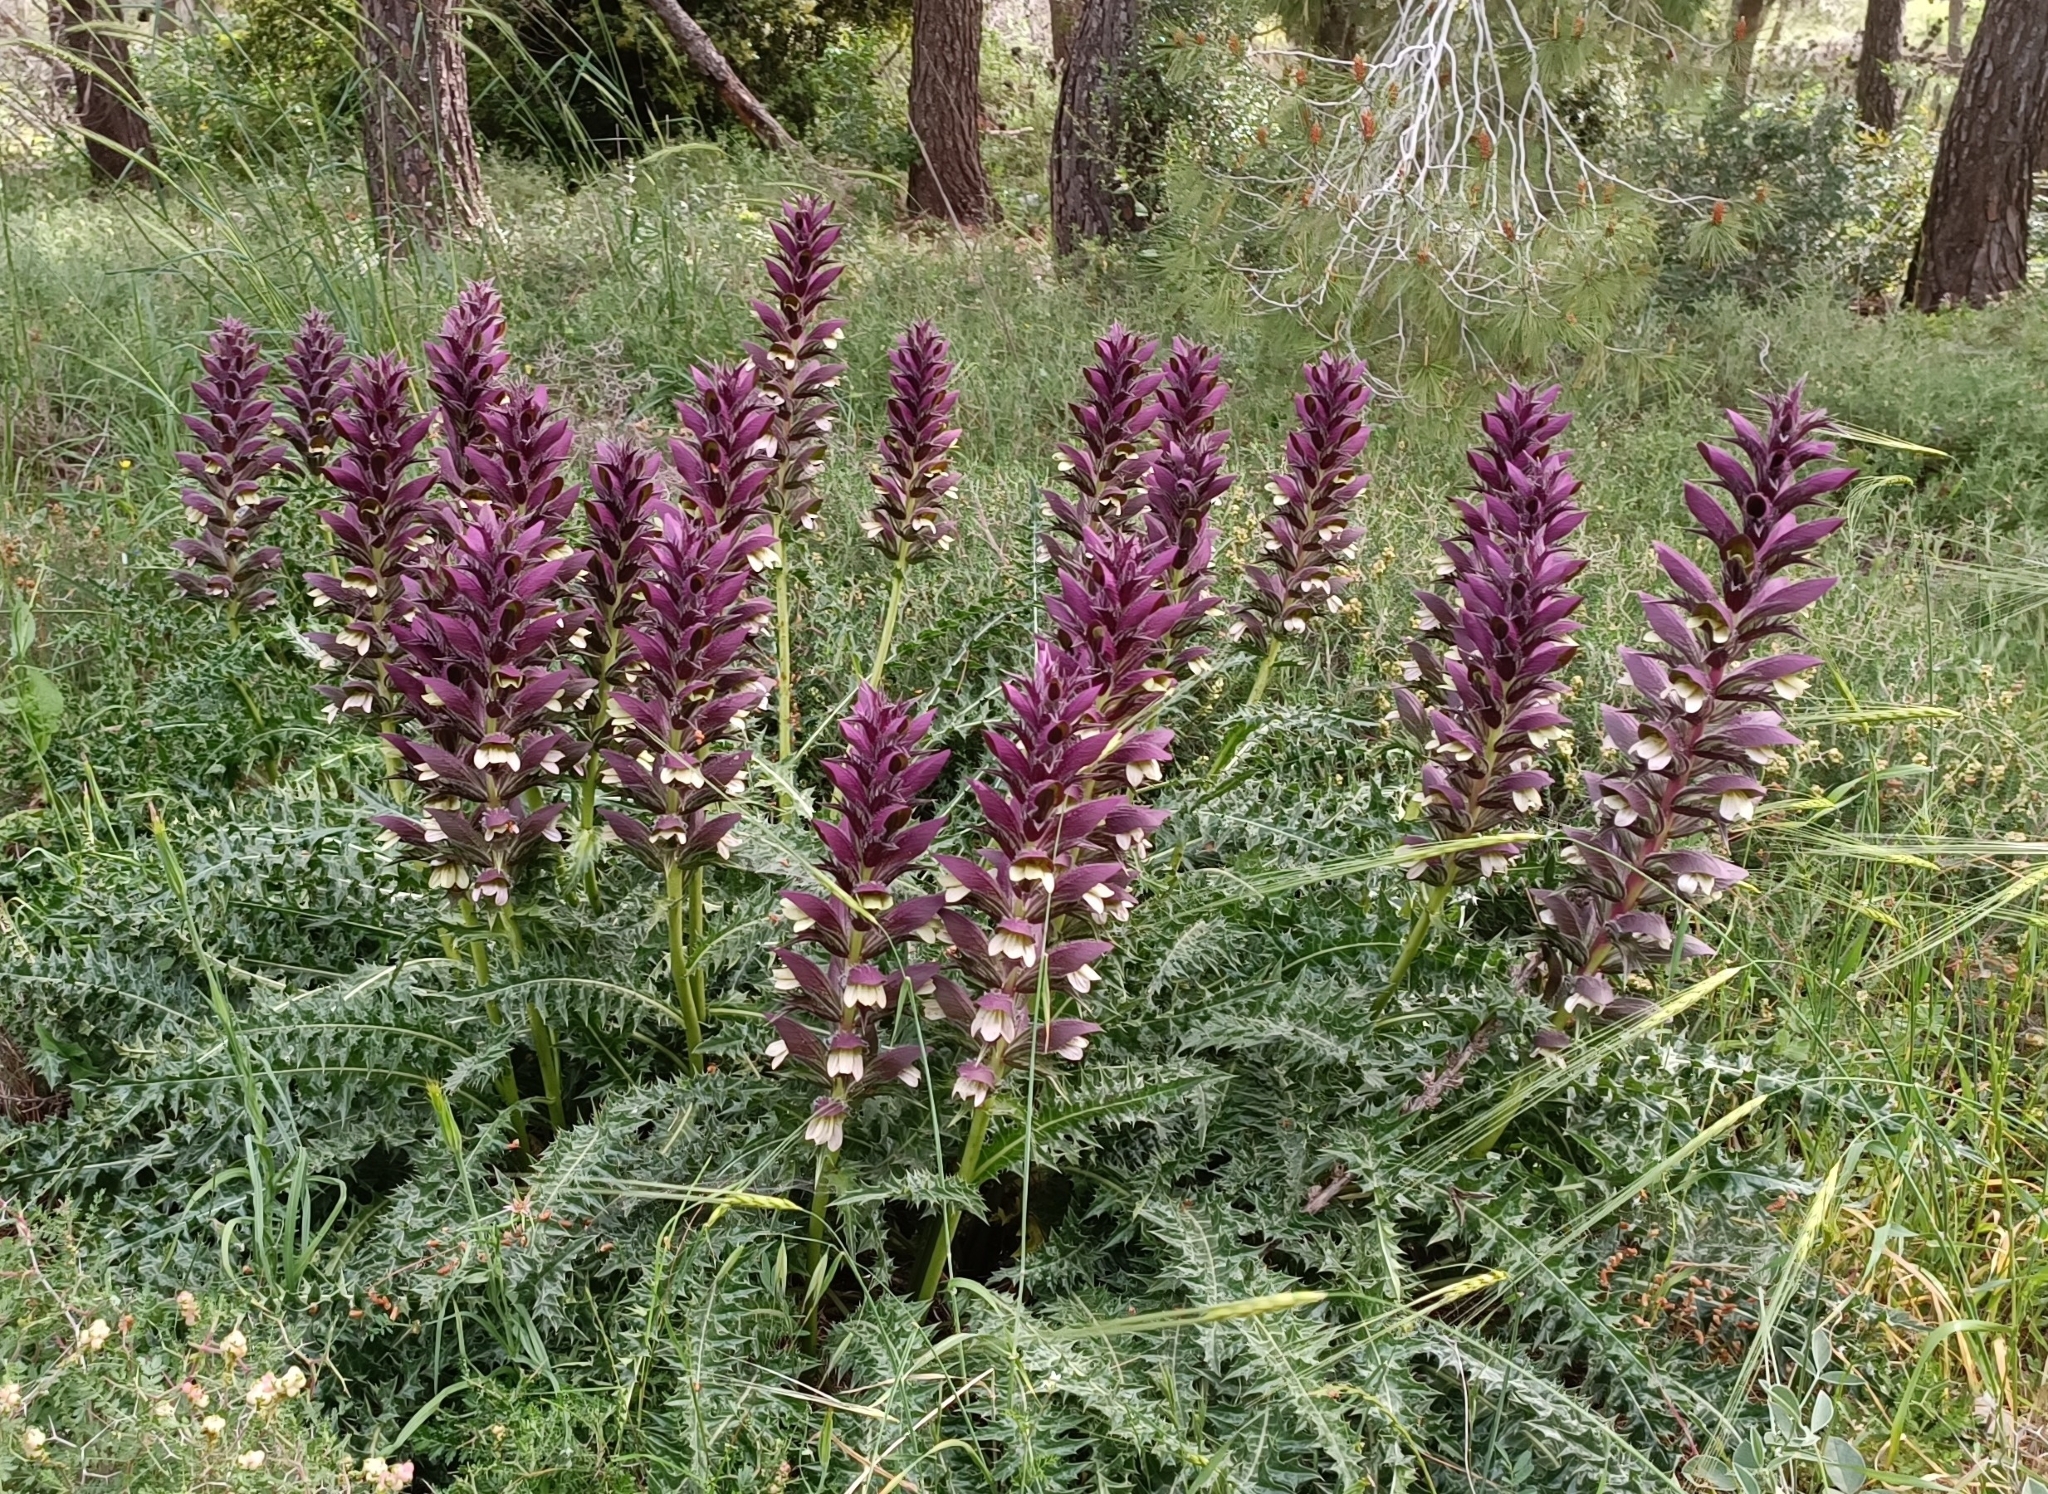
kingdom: Plantae
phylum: Tracheophyta
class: Magnoliopsida
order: Lamiales
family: Acanthaceae
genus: Acanthus
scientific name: Acanthus hirsutus
